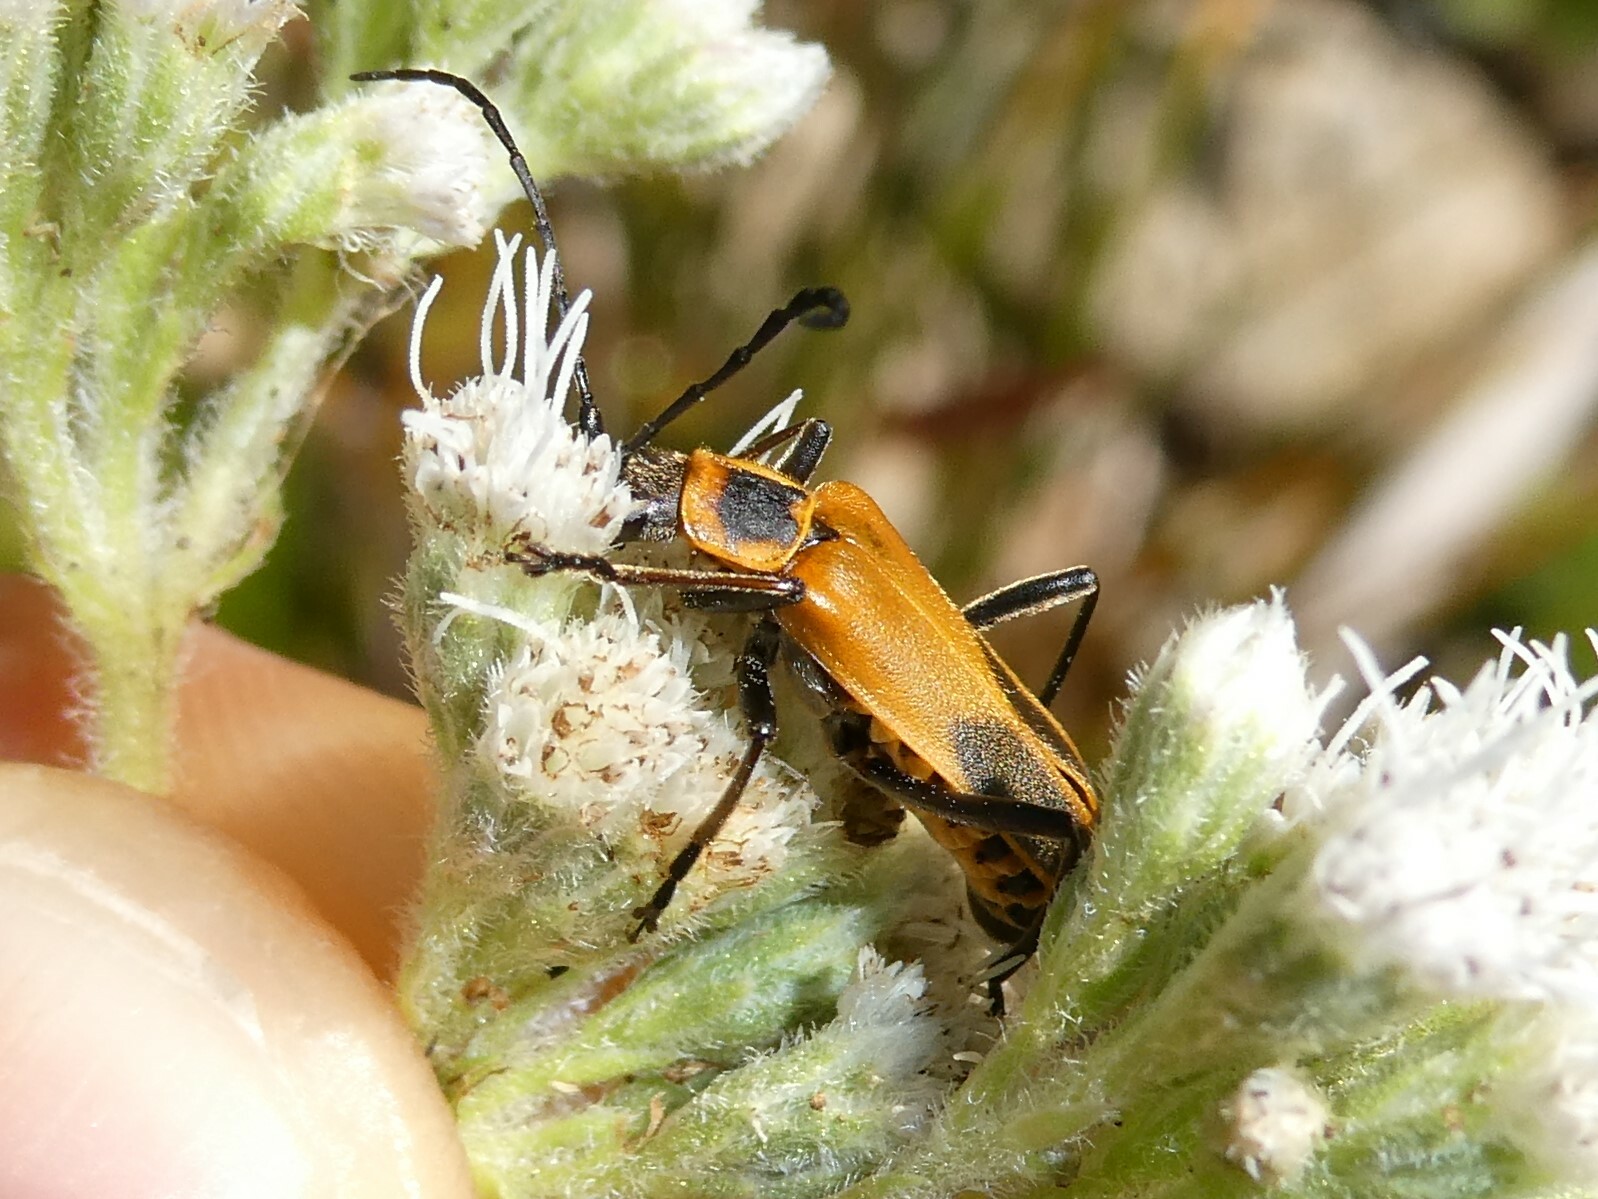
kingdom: Animalia
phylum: Arthropoda
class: Insecta
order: Coleoptera
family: Cantharidae
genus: Chauliognathus
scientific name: Chauliognathus pensylvanicus
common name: Goldenrod soldier beetle
